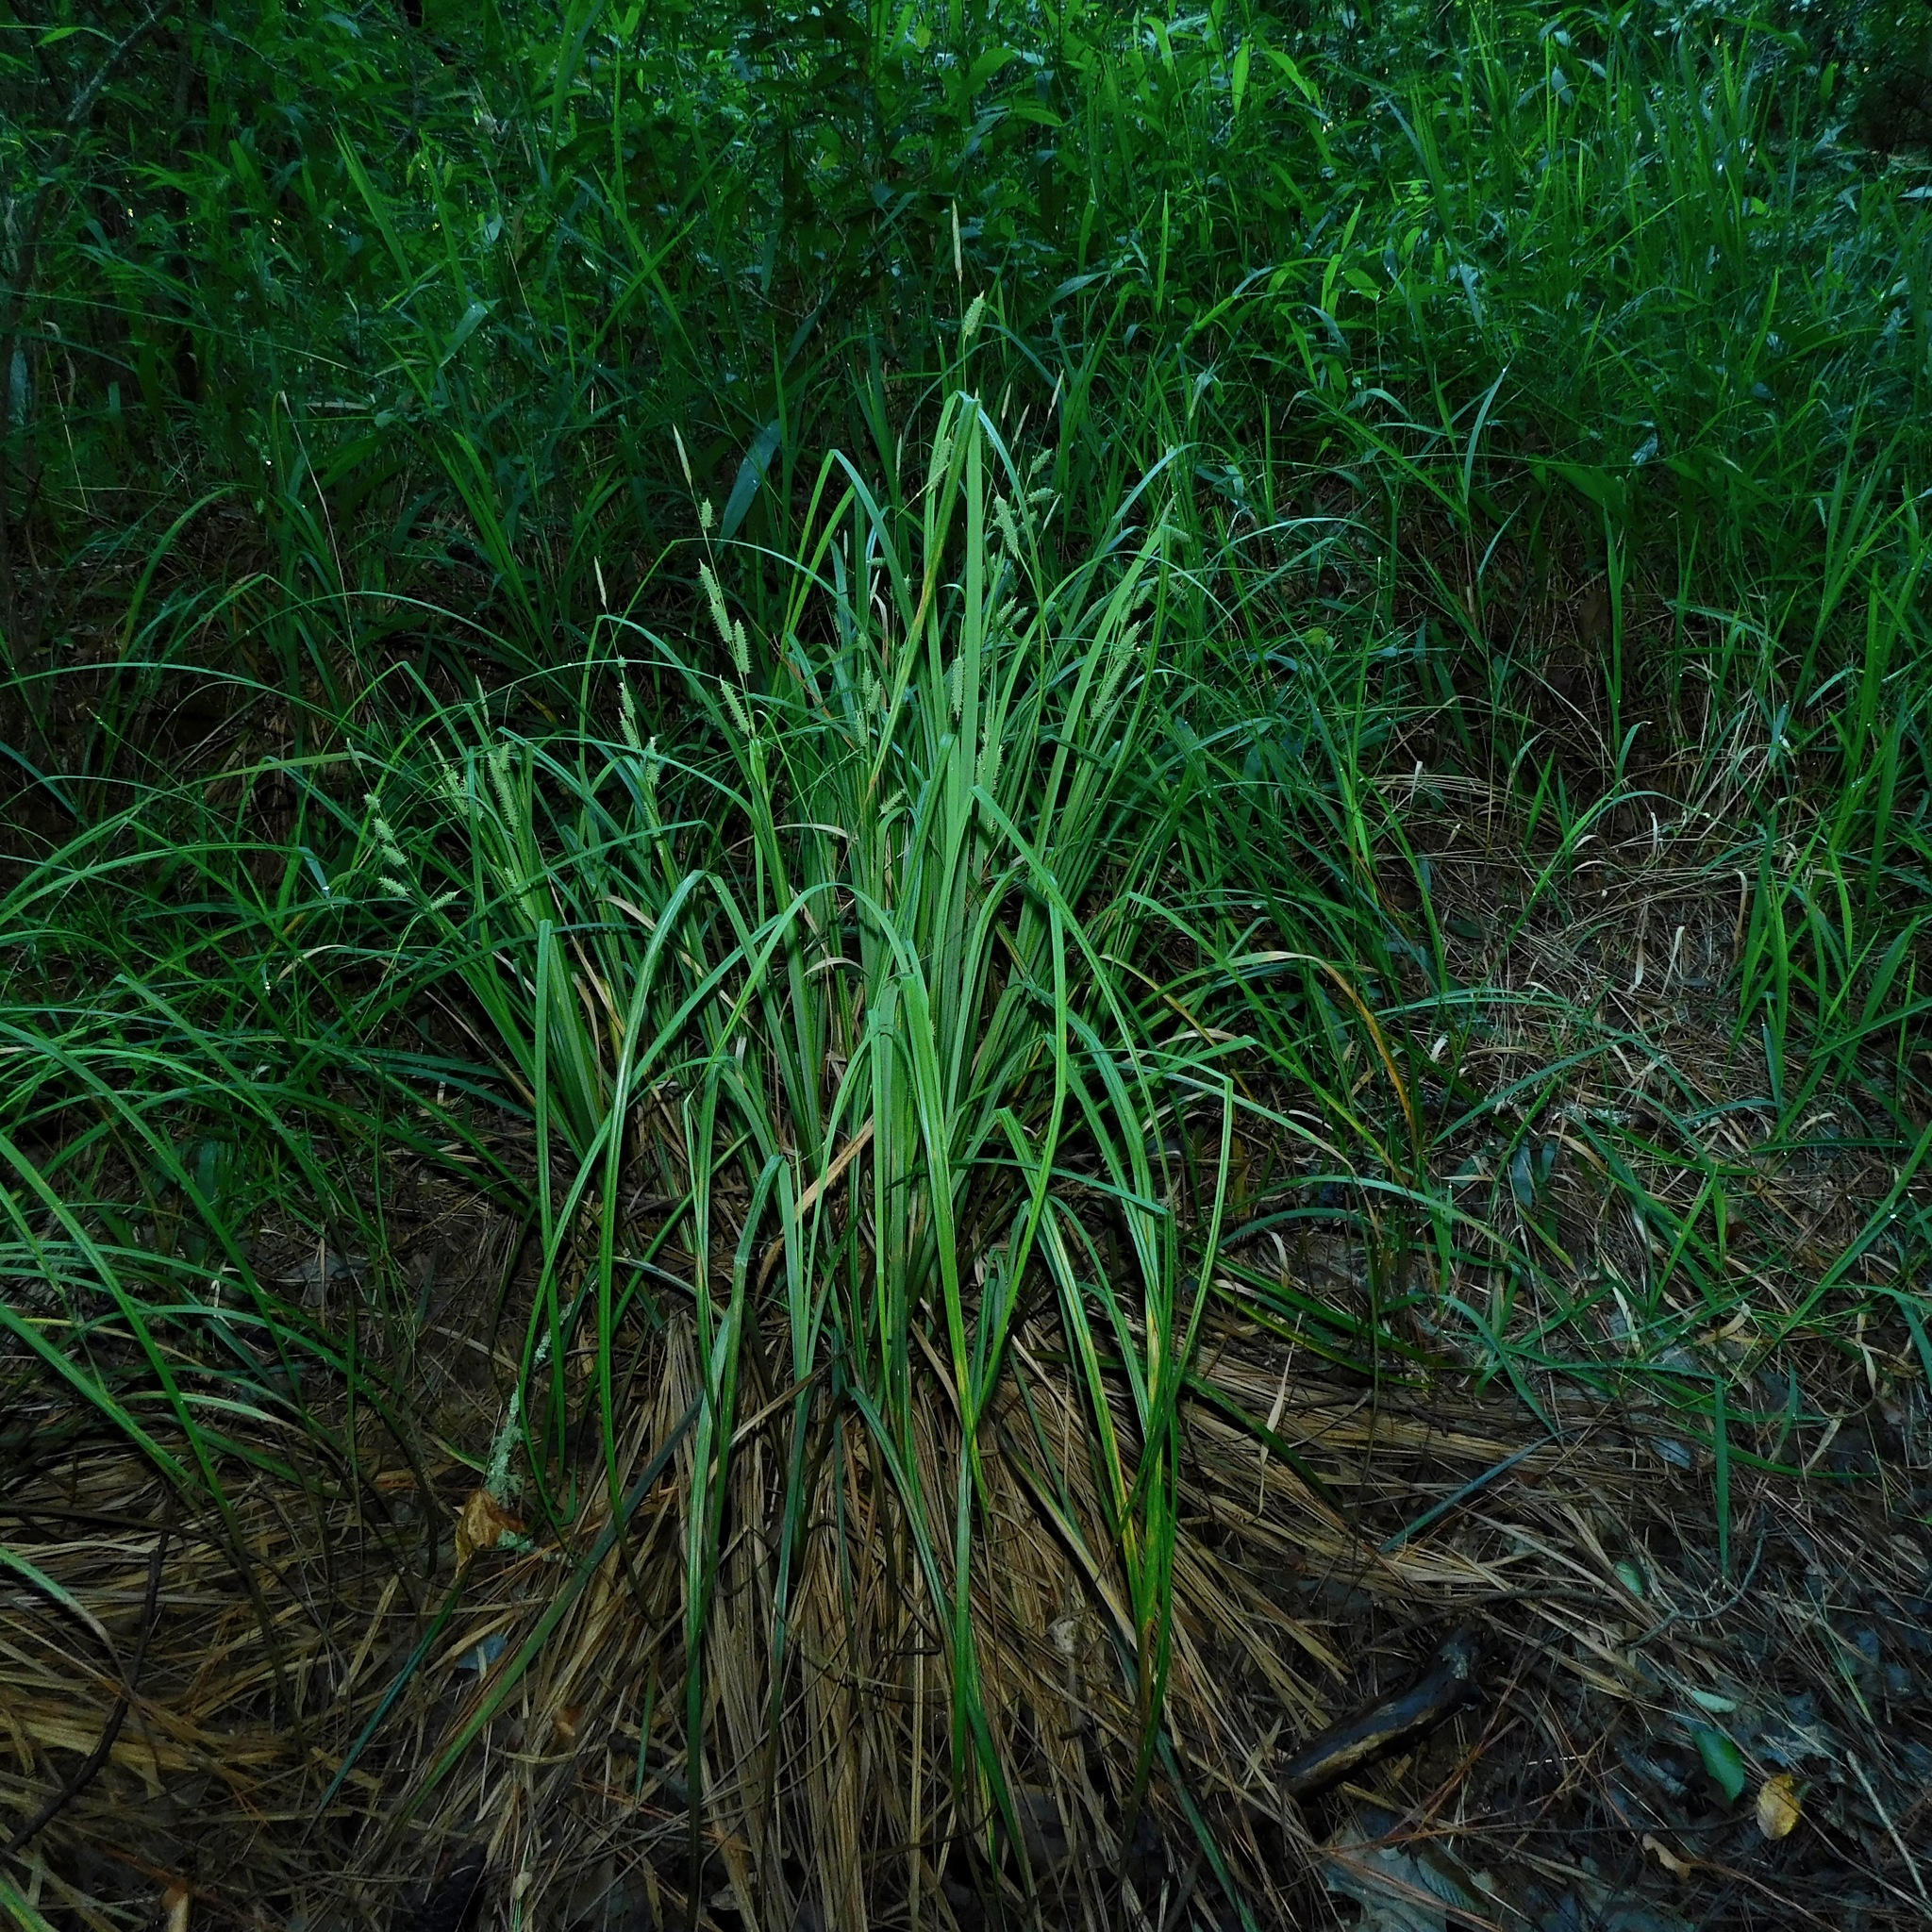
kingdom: Plantae
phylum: Tracheophyta
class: Liliopsida
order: Poales
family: Cyperaceae
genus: Carex
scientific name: Carex joorii
